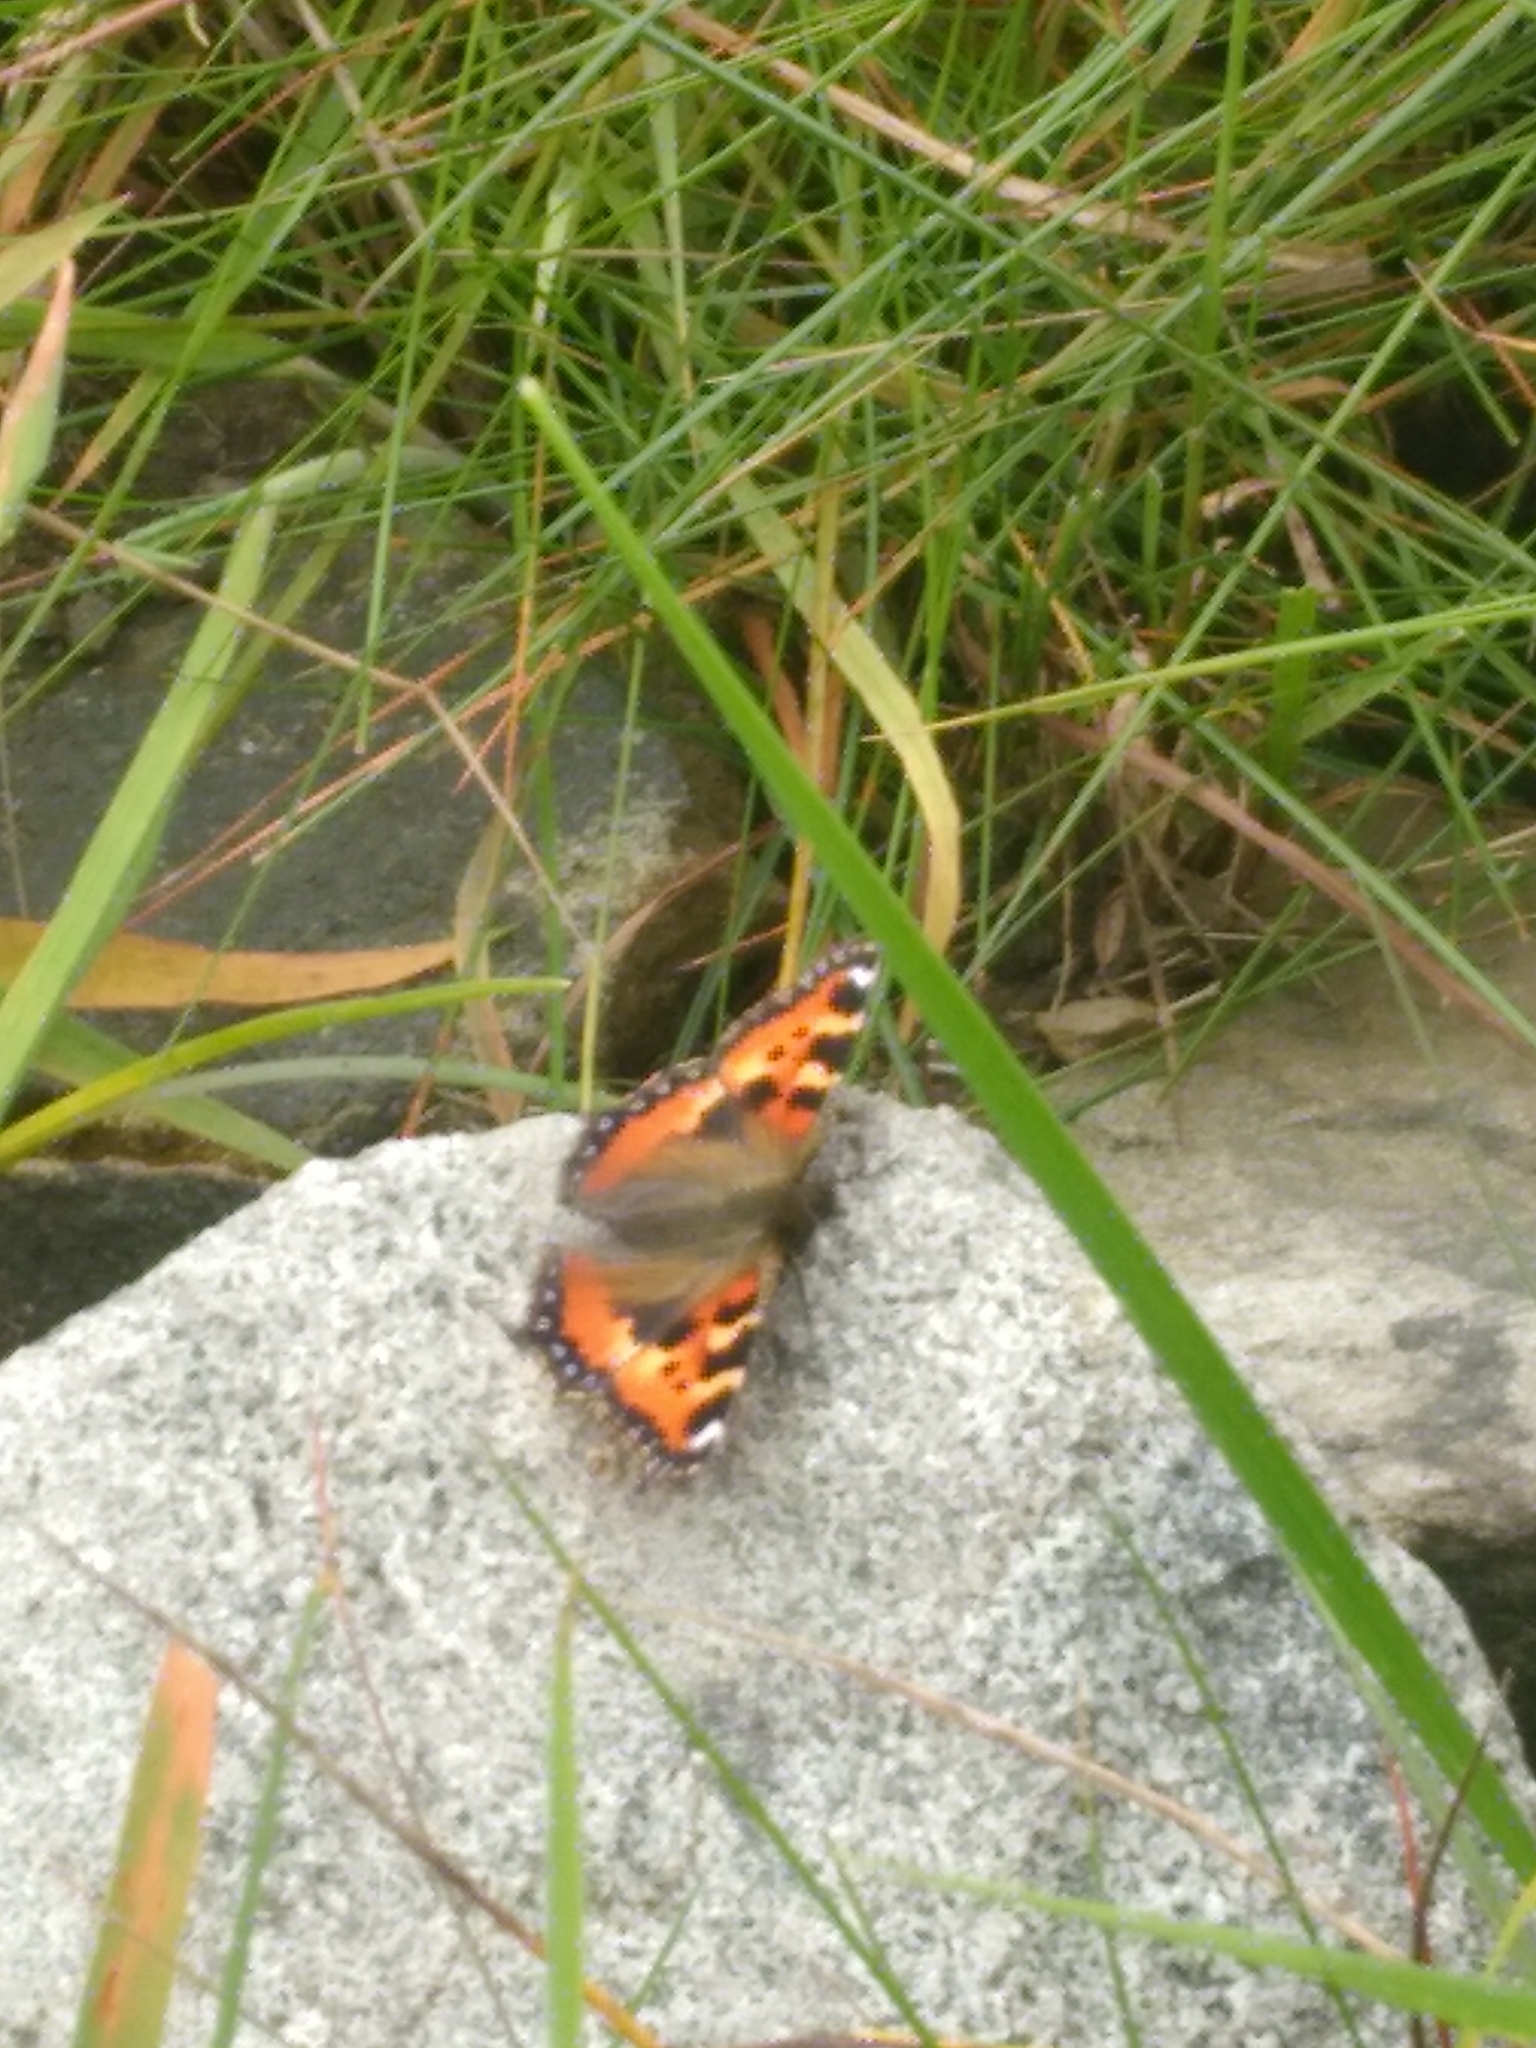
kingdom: Animalia
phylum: Arthropoda
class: Insecta
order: Lepidoptera
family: Nymphalidae
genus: Aglais
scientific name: Aglais urticae
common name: Small tortoiseshell
